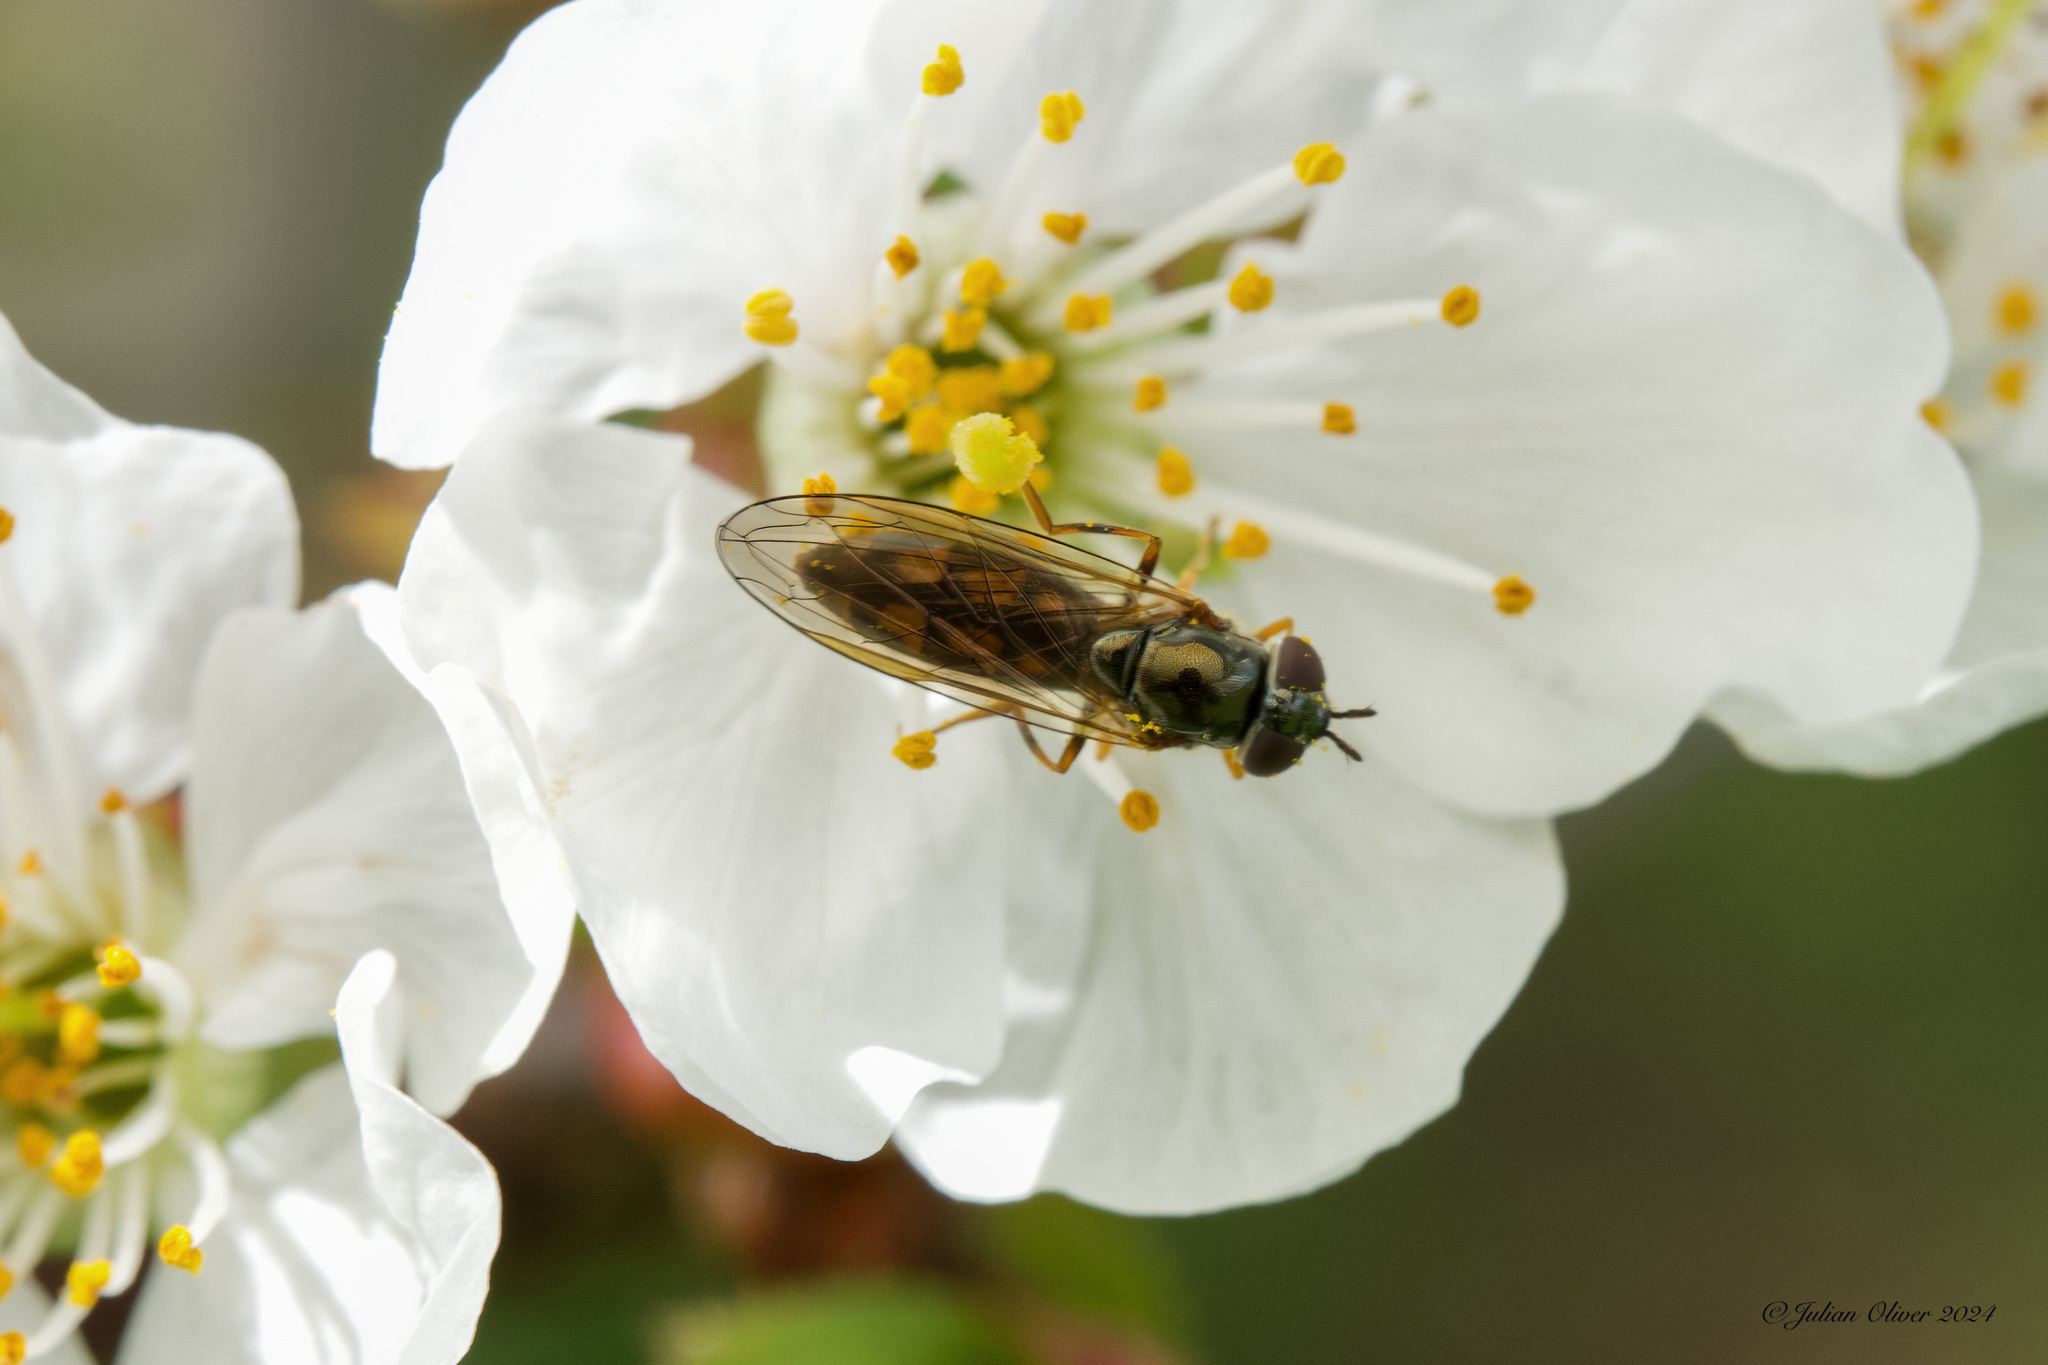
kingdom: Animalia
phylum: Arthropoda
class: Insecta
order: Diptera
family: Syrphidae
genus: Melanostoma
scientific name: Melanostoma mellina
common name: Hover fly
